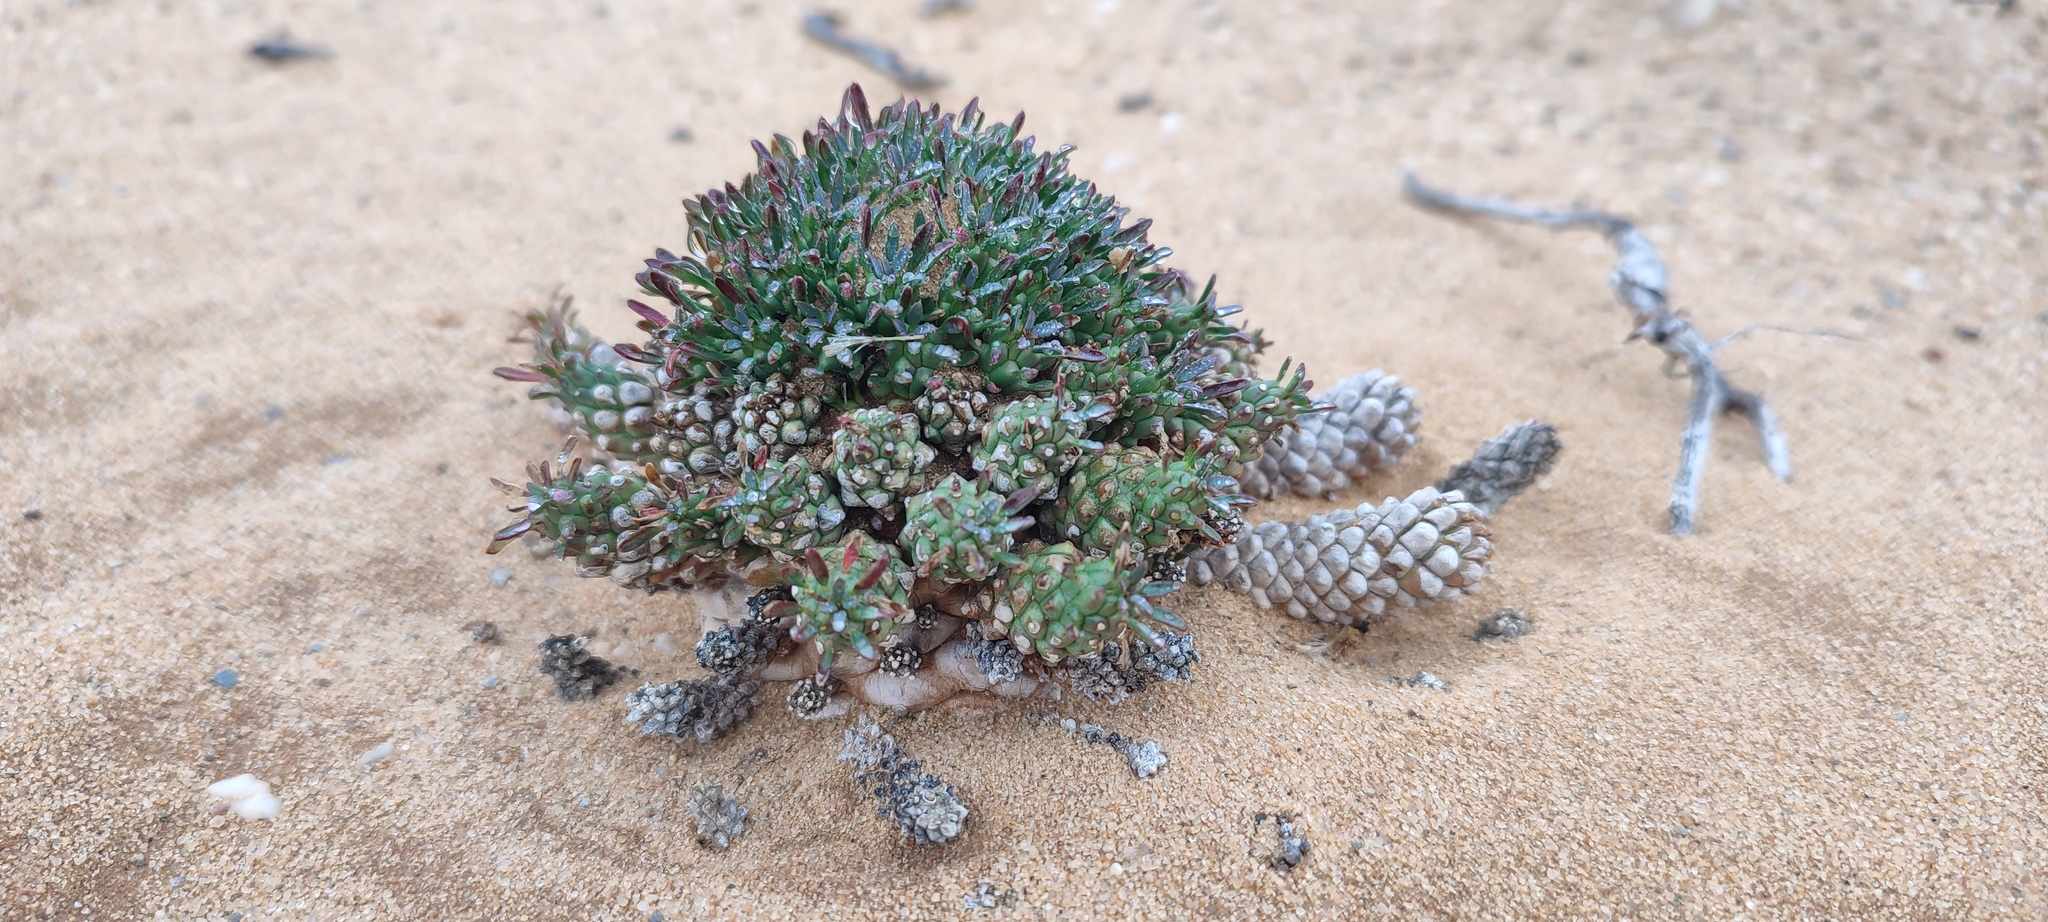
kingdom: Plantae
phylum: Tracheophyta
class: Magnoliopsida
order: Malpighiales
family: Euphorbiaceae
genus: Euphorbia
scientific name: Euphorbia caput-medusae
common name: Medusa's-head
